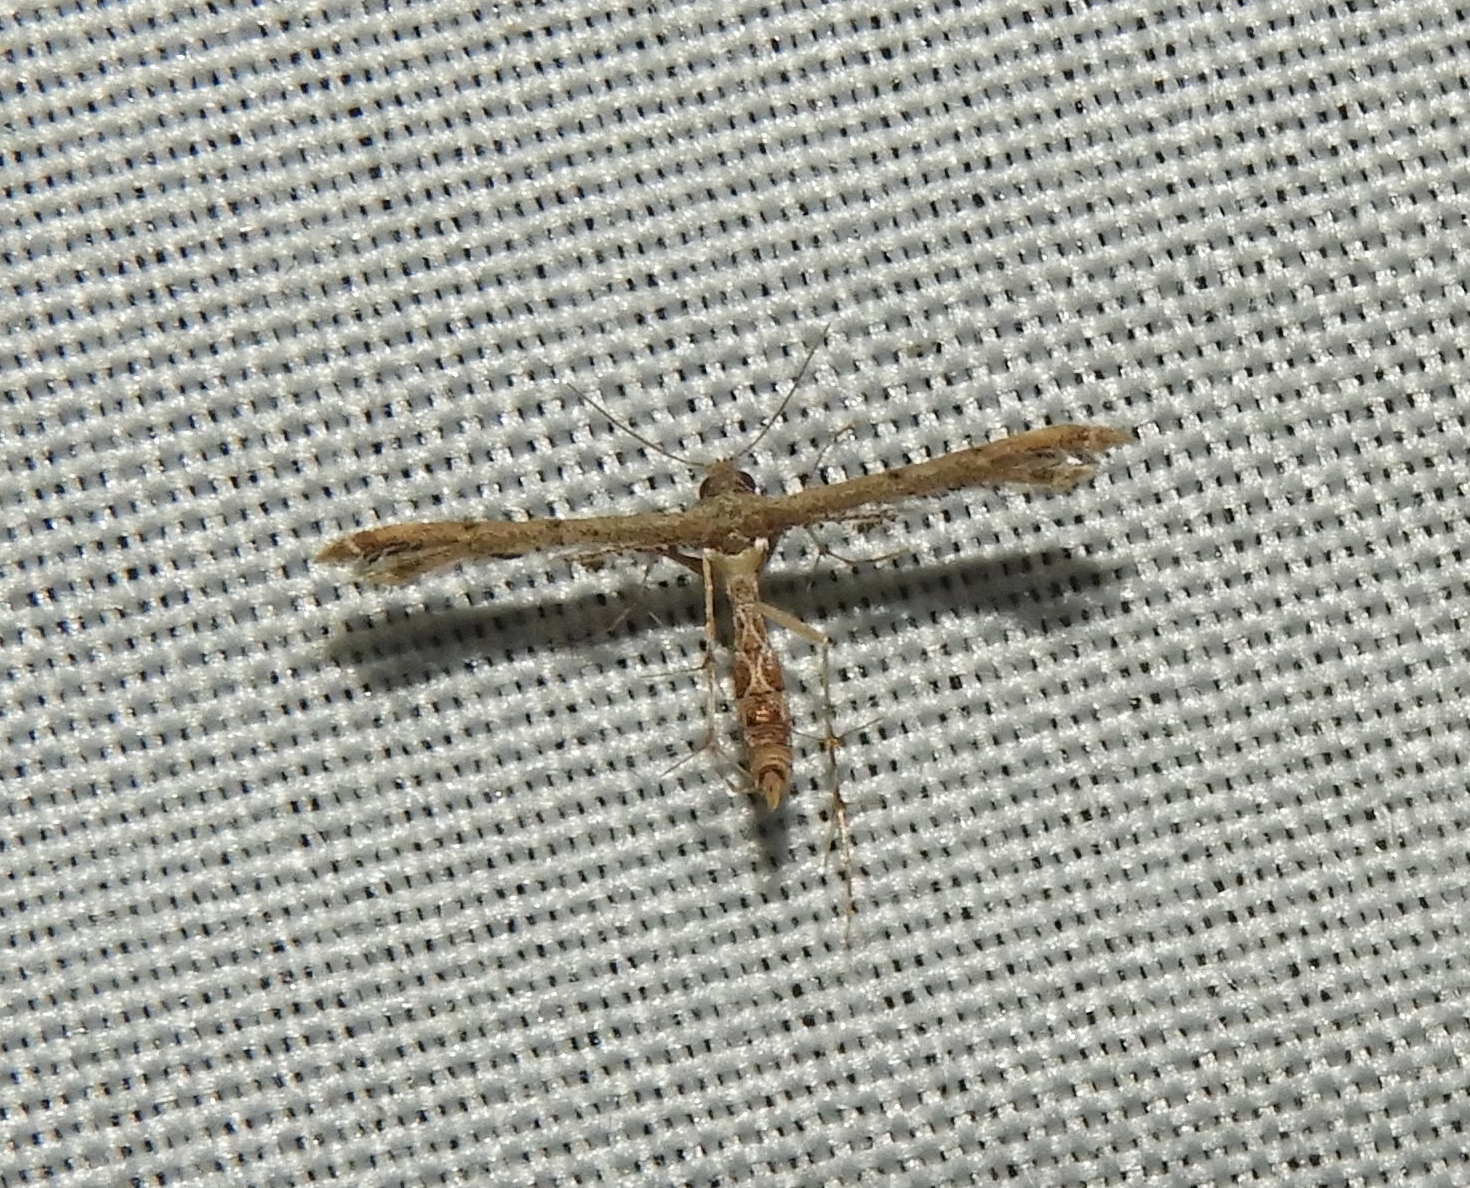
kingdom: Animalia
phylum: Arthropoda
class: Insecta
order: Lepidoptera
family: Pterophoridae
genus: Michaelophorus
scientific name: Michaelophorus indentatus
